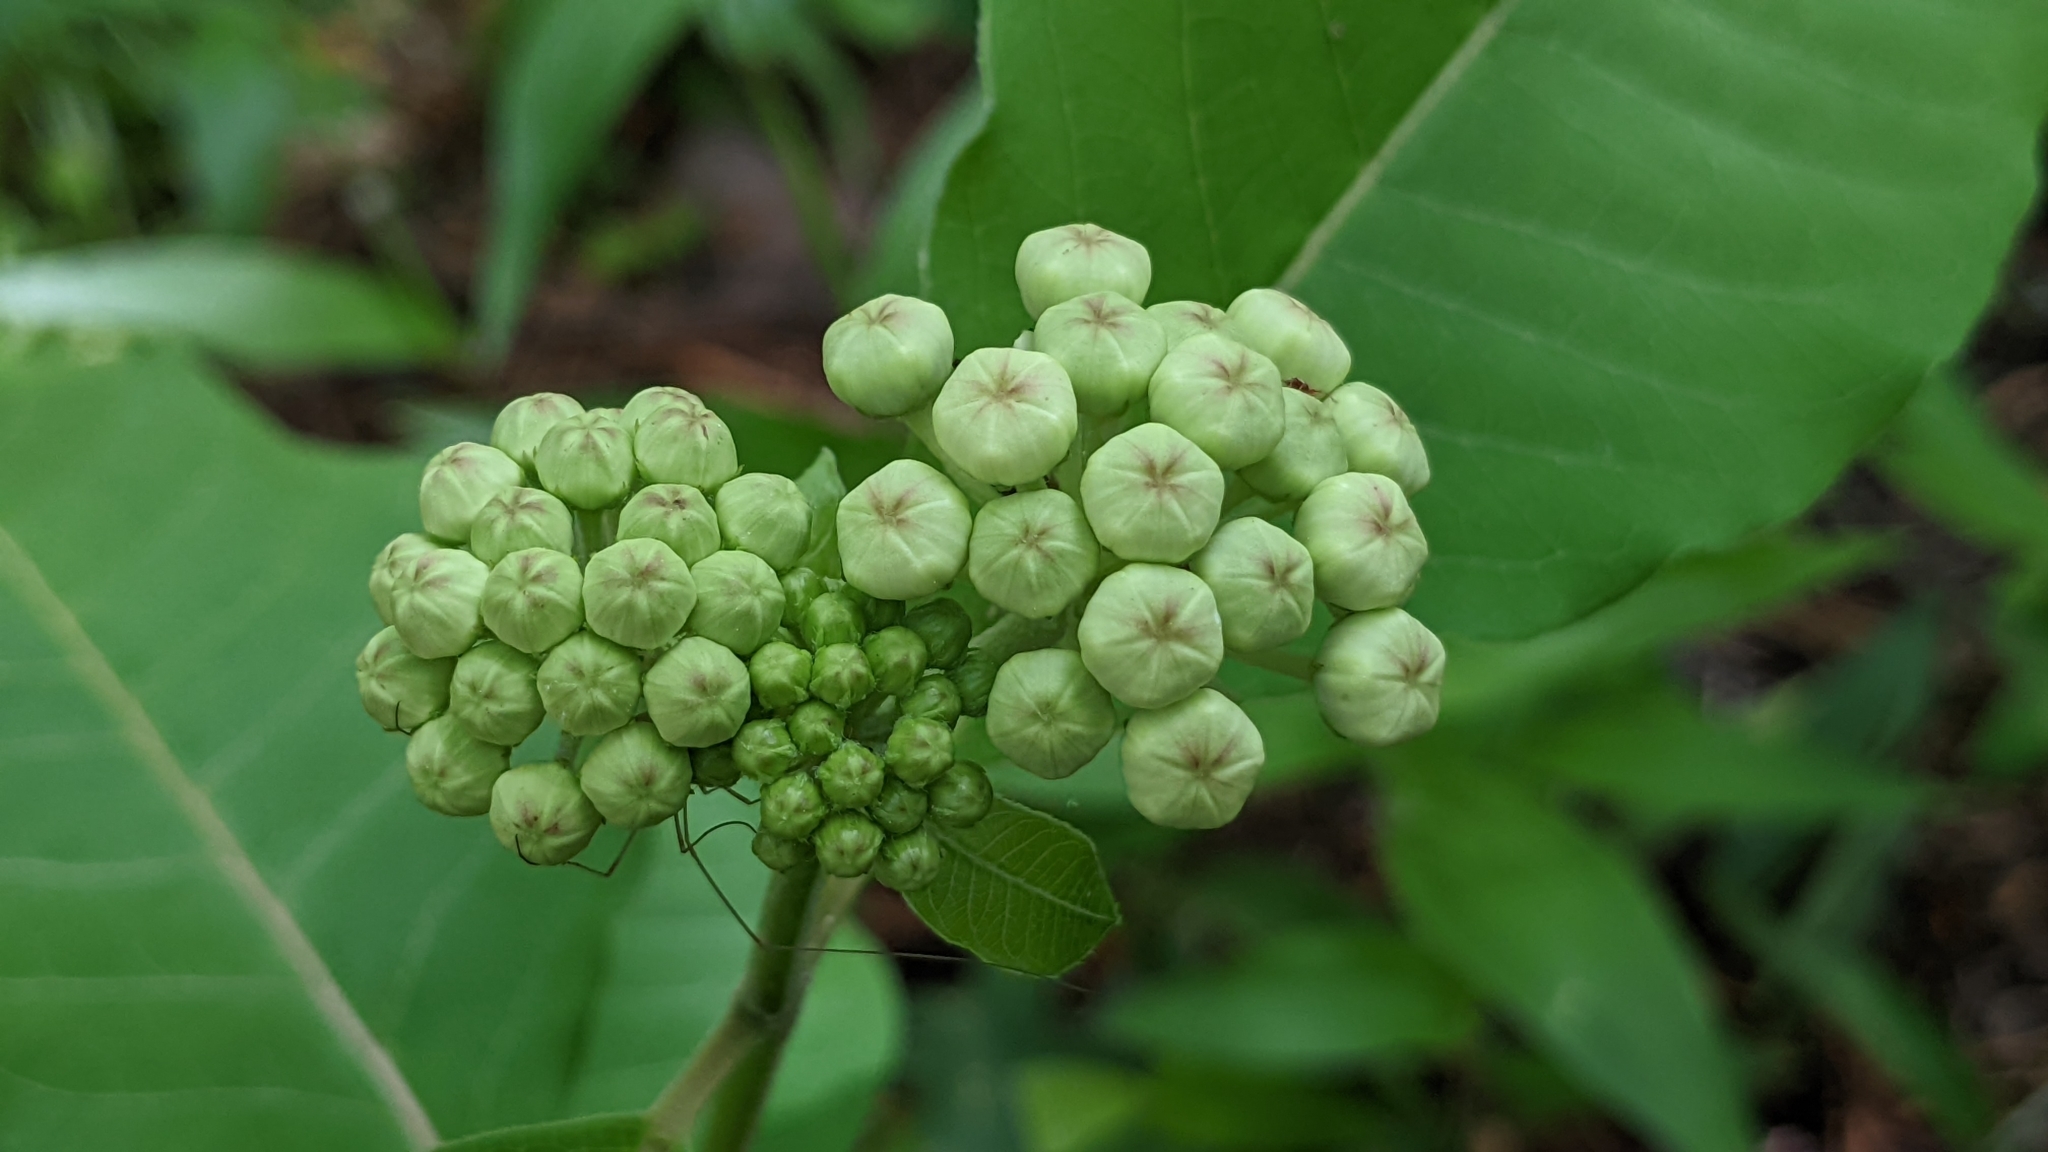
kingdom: Plantae
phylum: Tracheophyta
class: Magnoliopsida
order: Gentianales
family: Apocynaceae
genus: Asclepias
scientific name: Asclepias variegata
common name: Variegated milkweed
